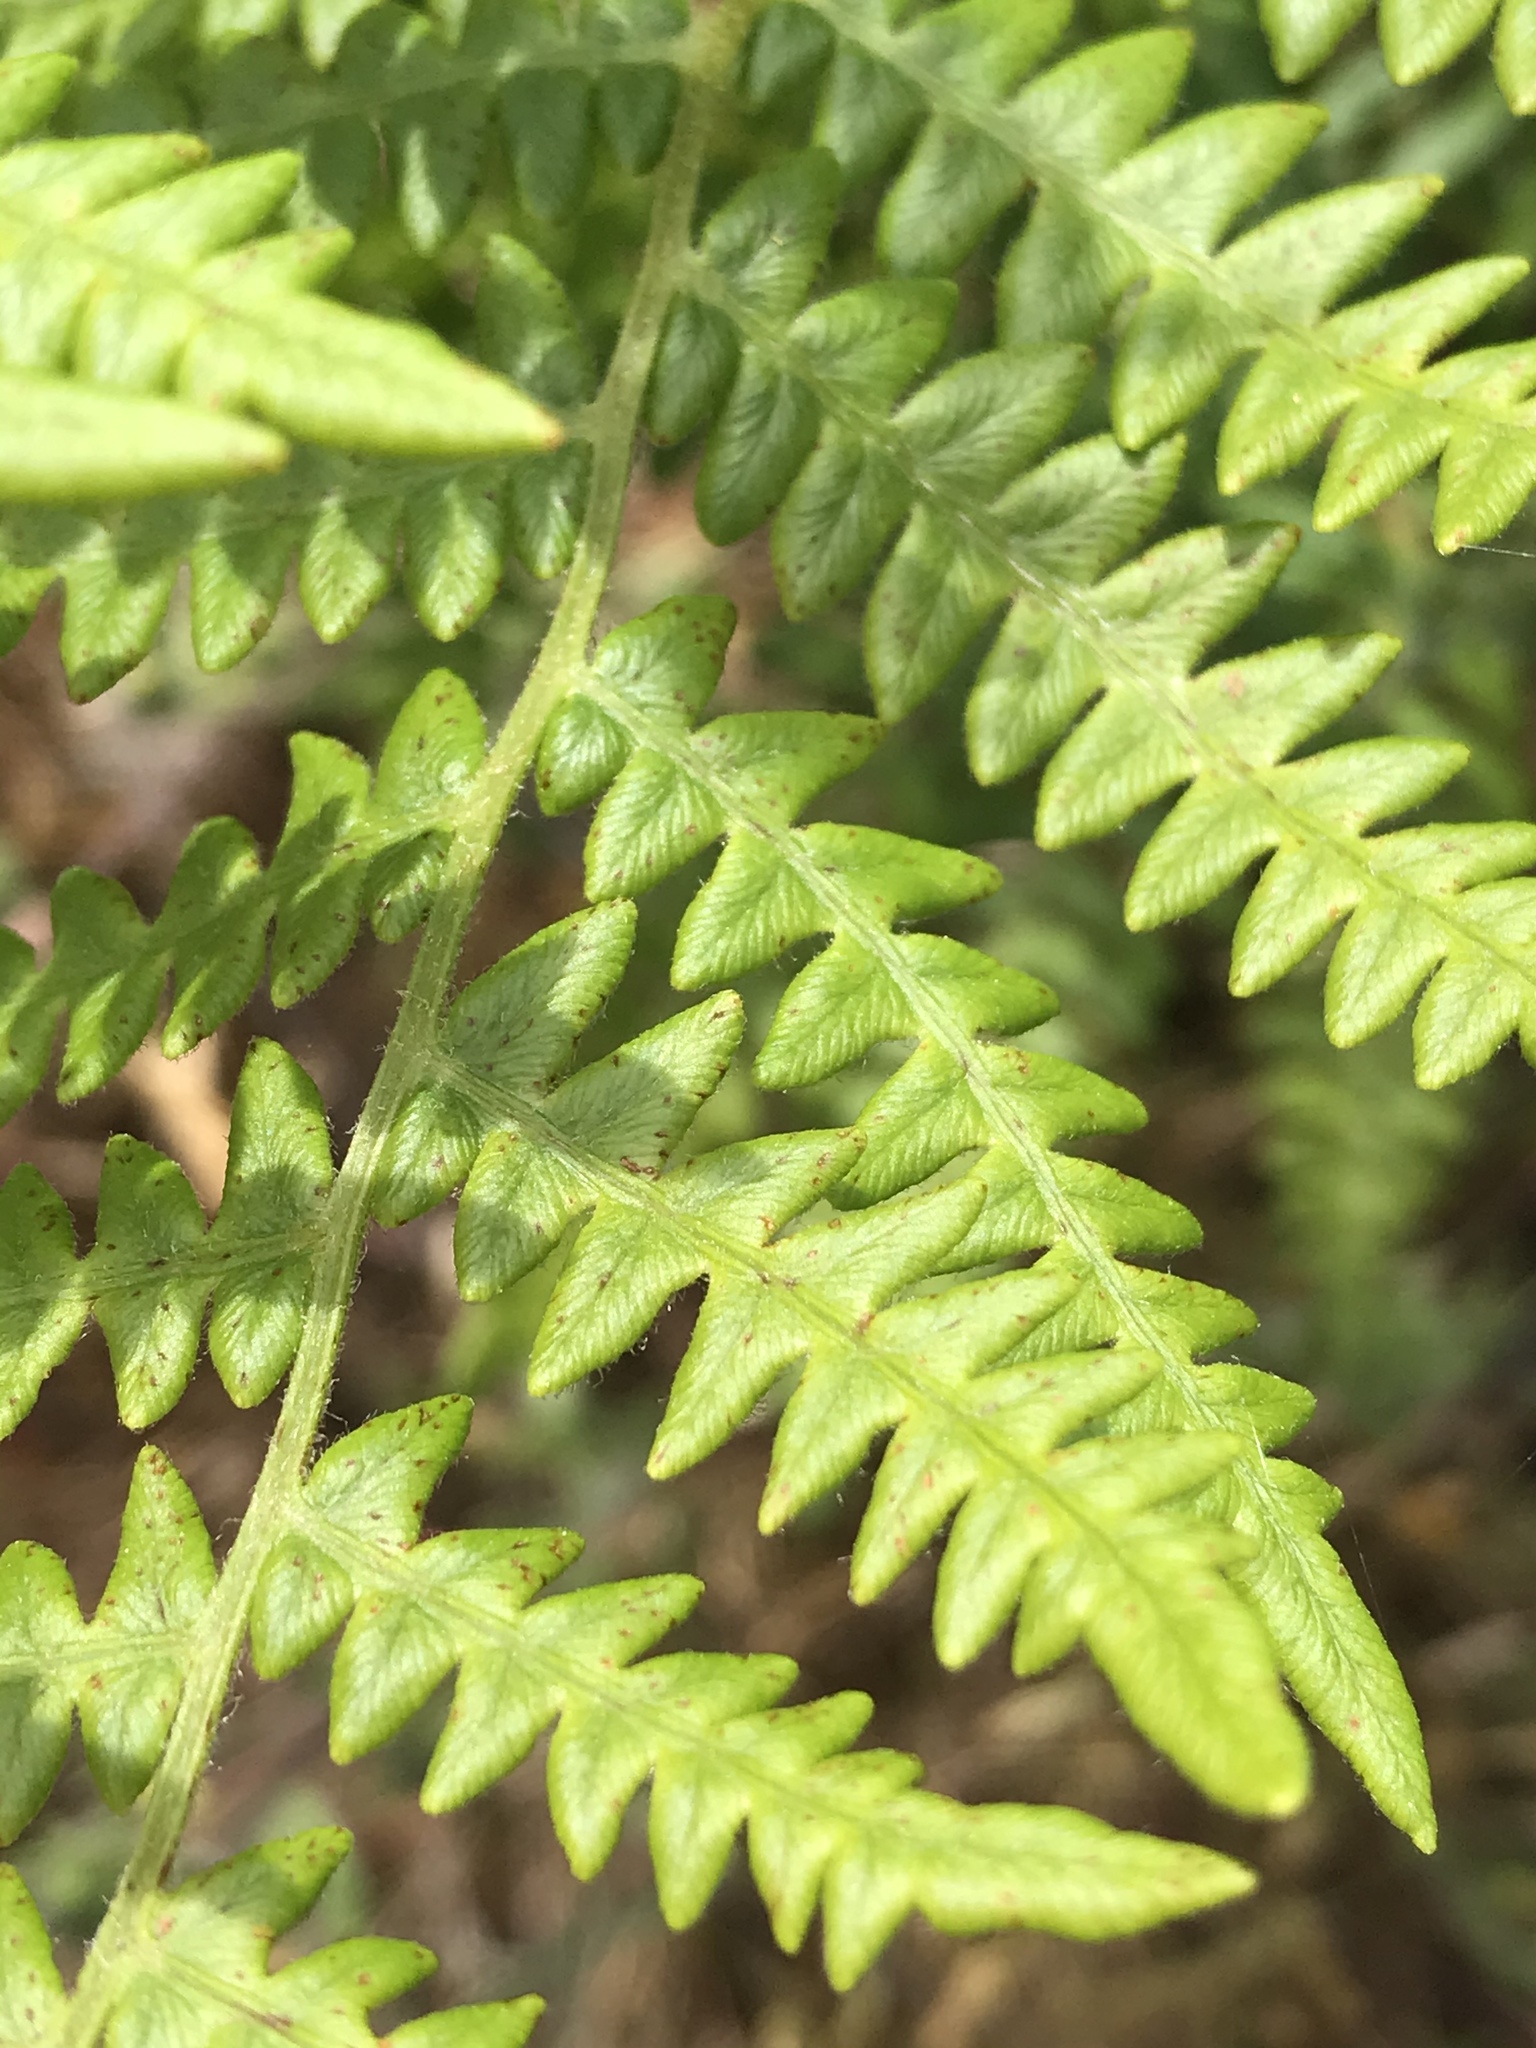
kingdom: Plantae
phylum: Tracheophyta
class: Polypodiopsida
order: Polypodiales
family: Dennstaedtiaceae
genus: Pteridium
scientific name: Pteridium aquilinum
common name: Bracken
